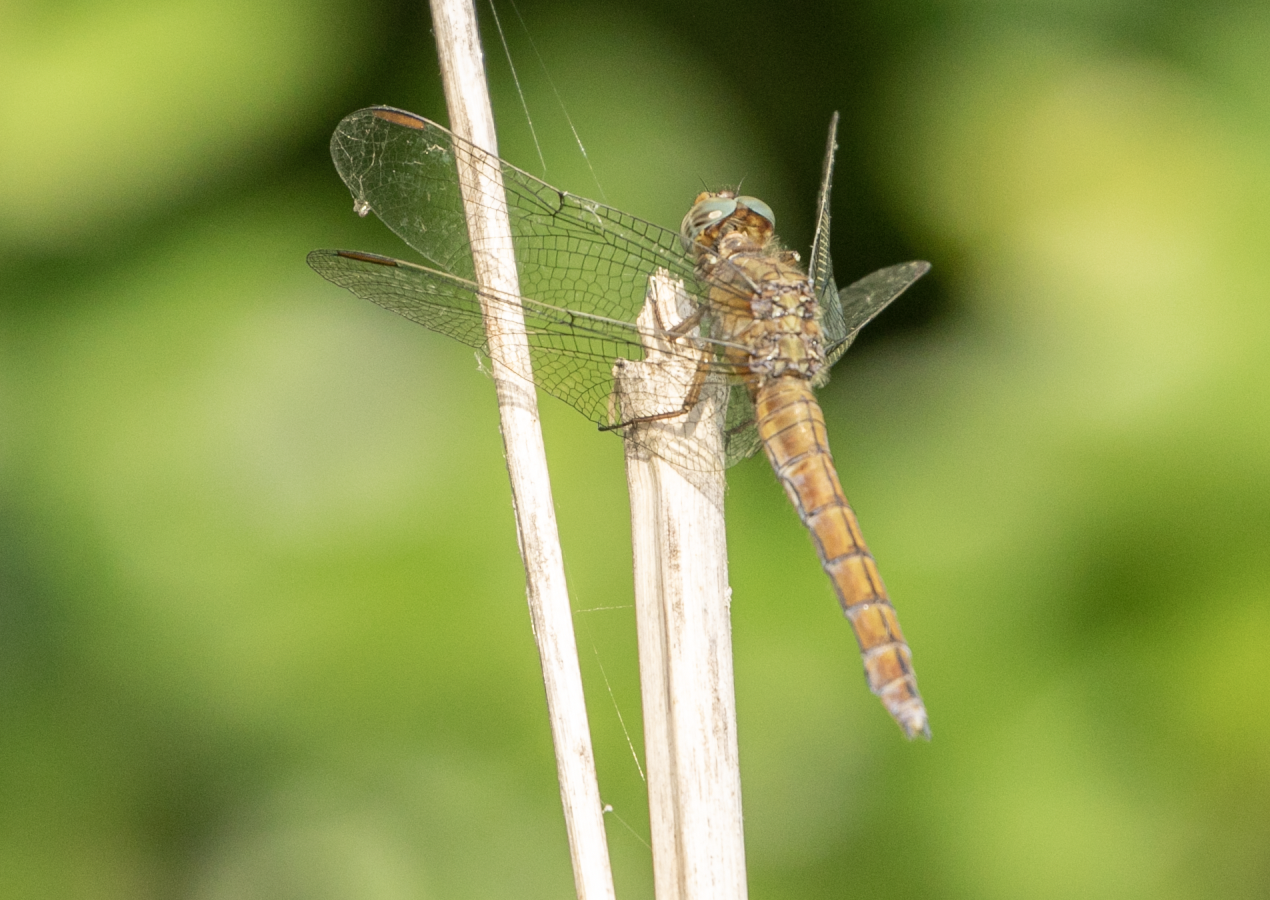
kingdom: Animalia
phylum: Arthropoda
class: Insecta
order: Odonata
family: Libellulidae
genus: Orthetrum
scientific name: Orthetrum coerulescens
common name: Keeled skimmer
